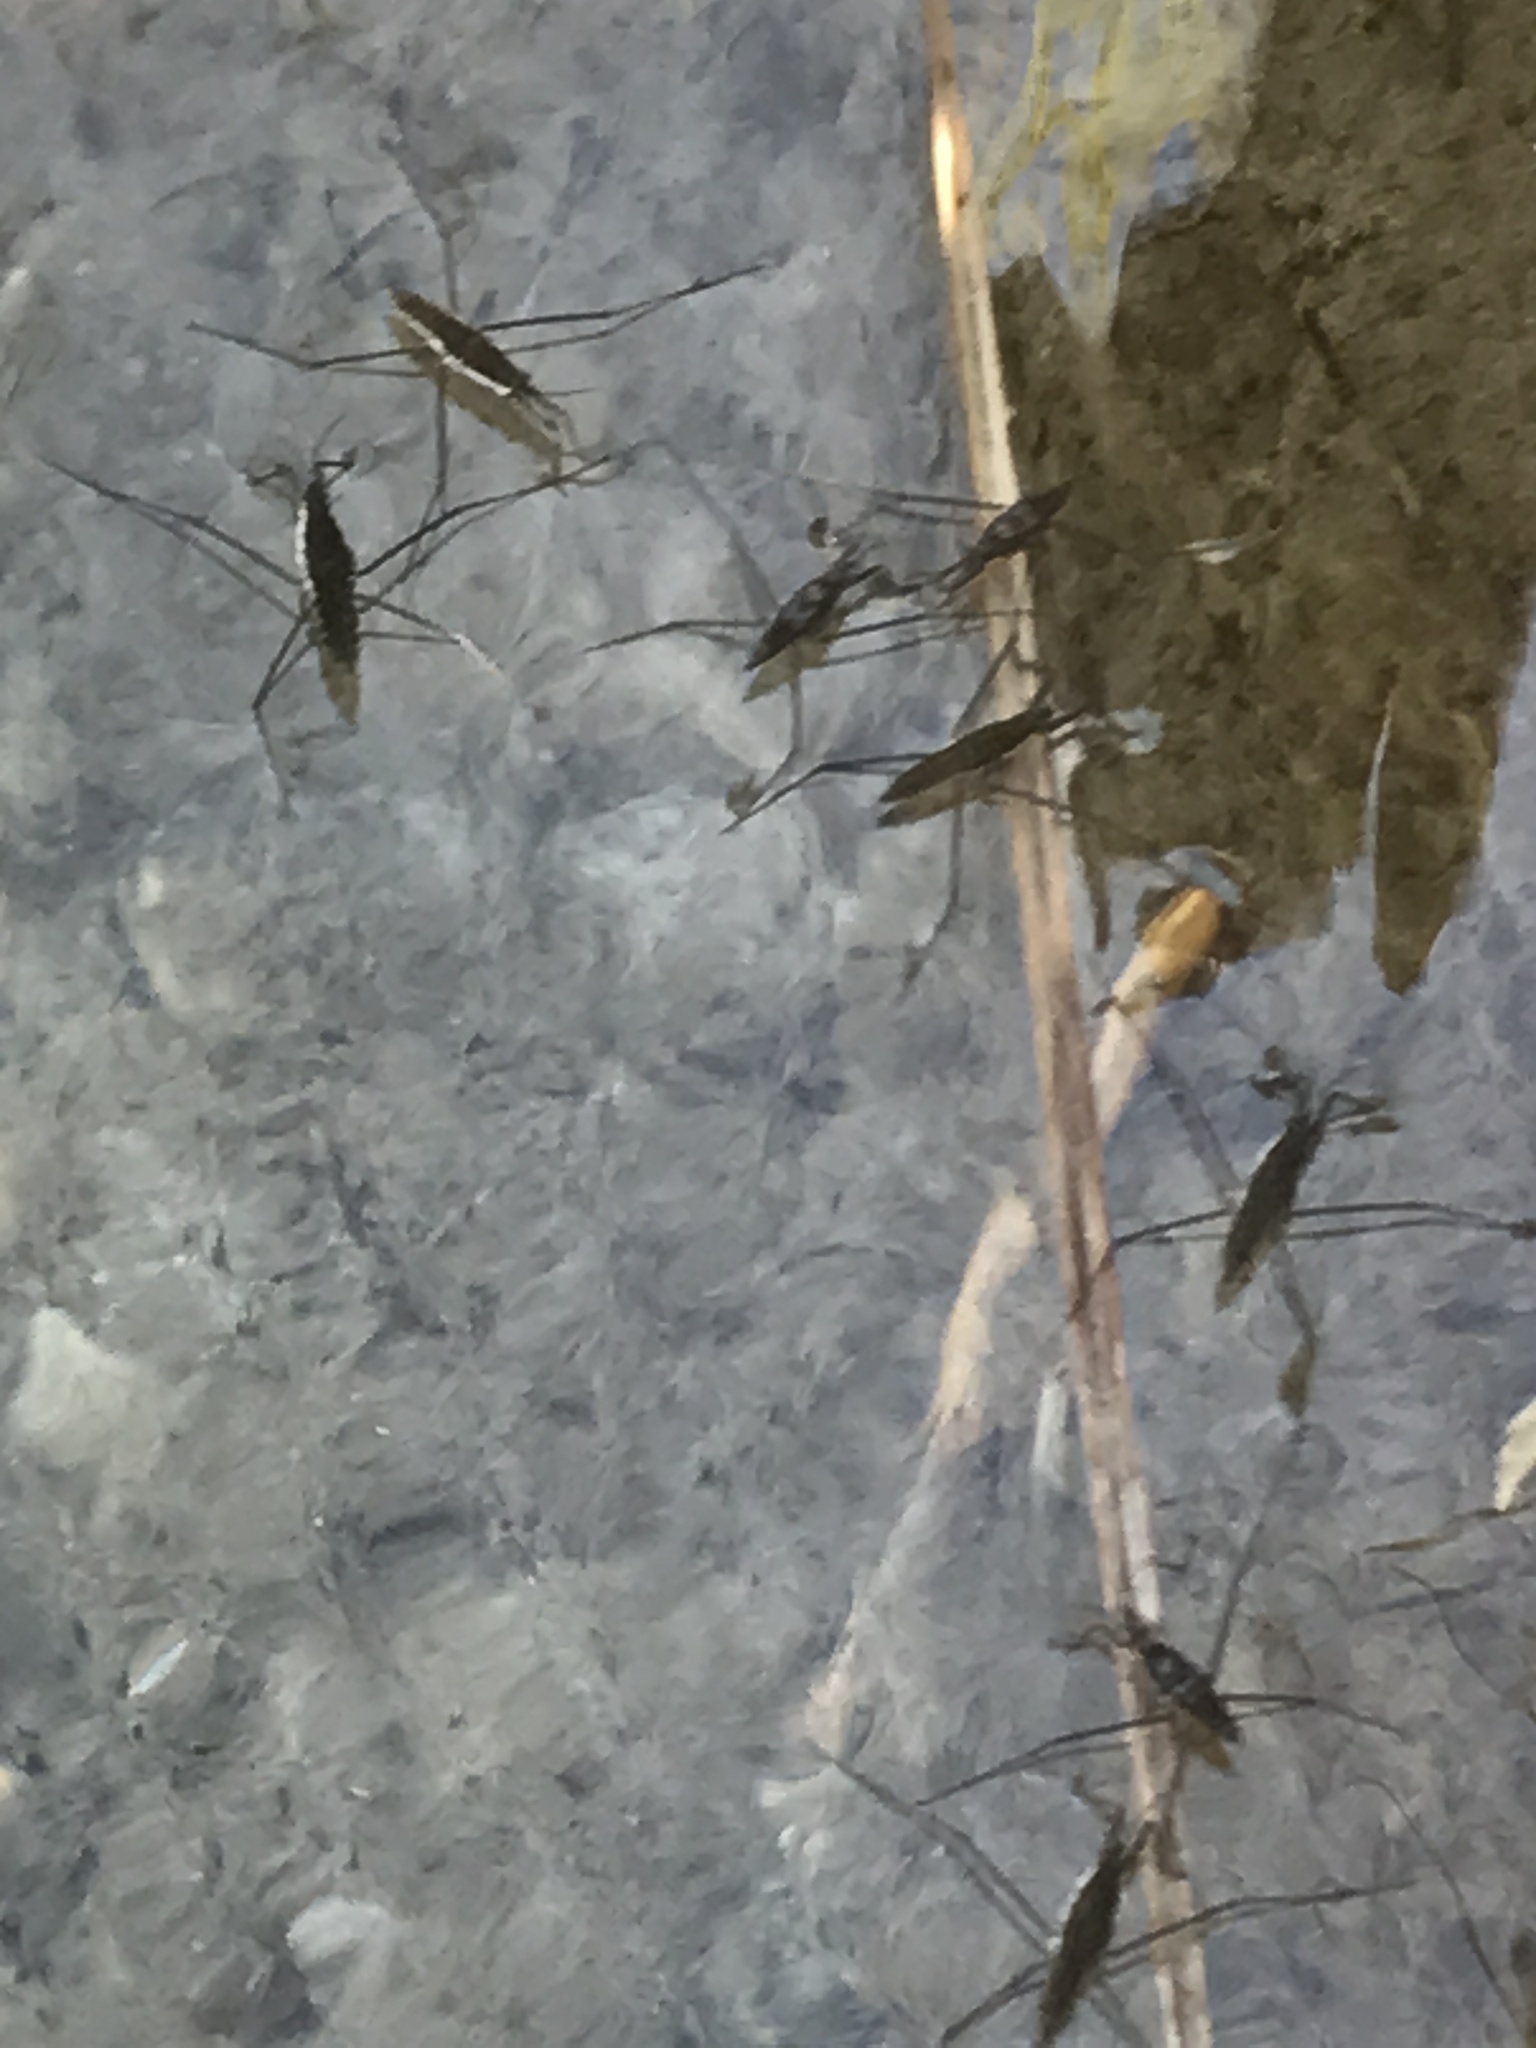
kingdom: Animalia
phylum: Arthropoda
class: Insecta
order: Hemiptera
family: Gerridae
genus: Aquarius
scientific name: Aquarius remigis
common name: Common water strider
